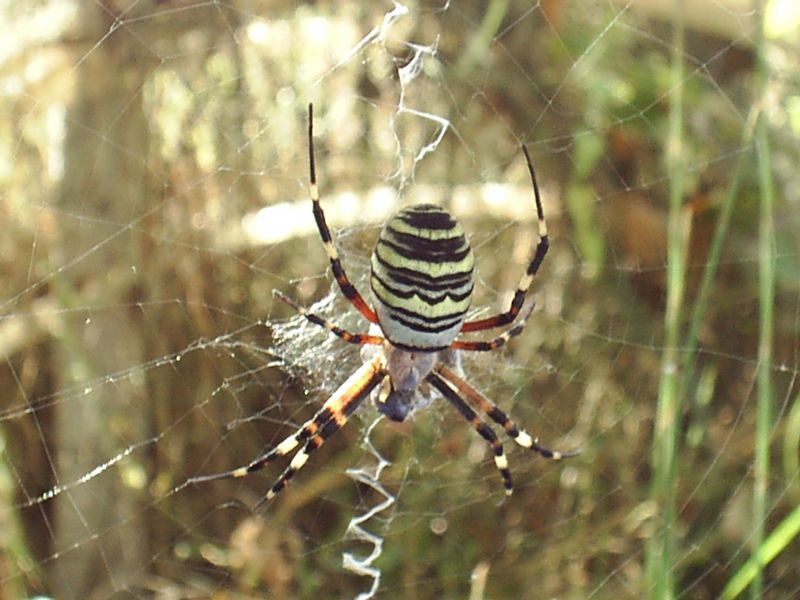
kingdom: Animalia
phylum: Arthropoda
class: Arachnida
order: Araneae
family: Araneidae
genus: Argiope
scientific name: Argiope bruennichi
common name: Wasp spider
